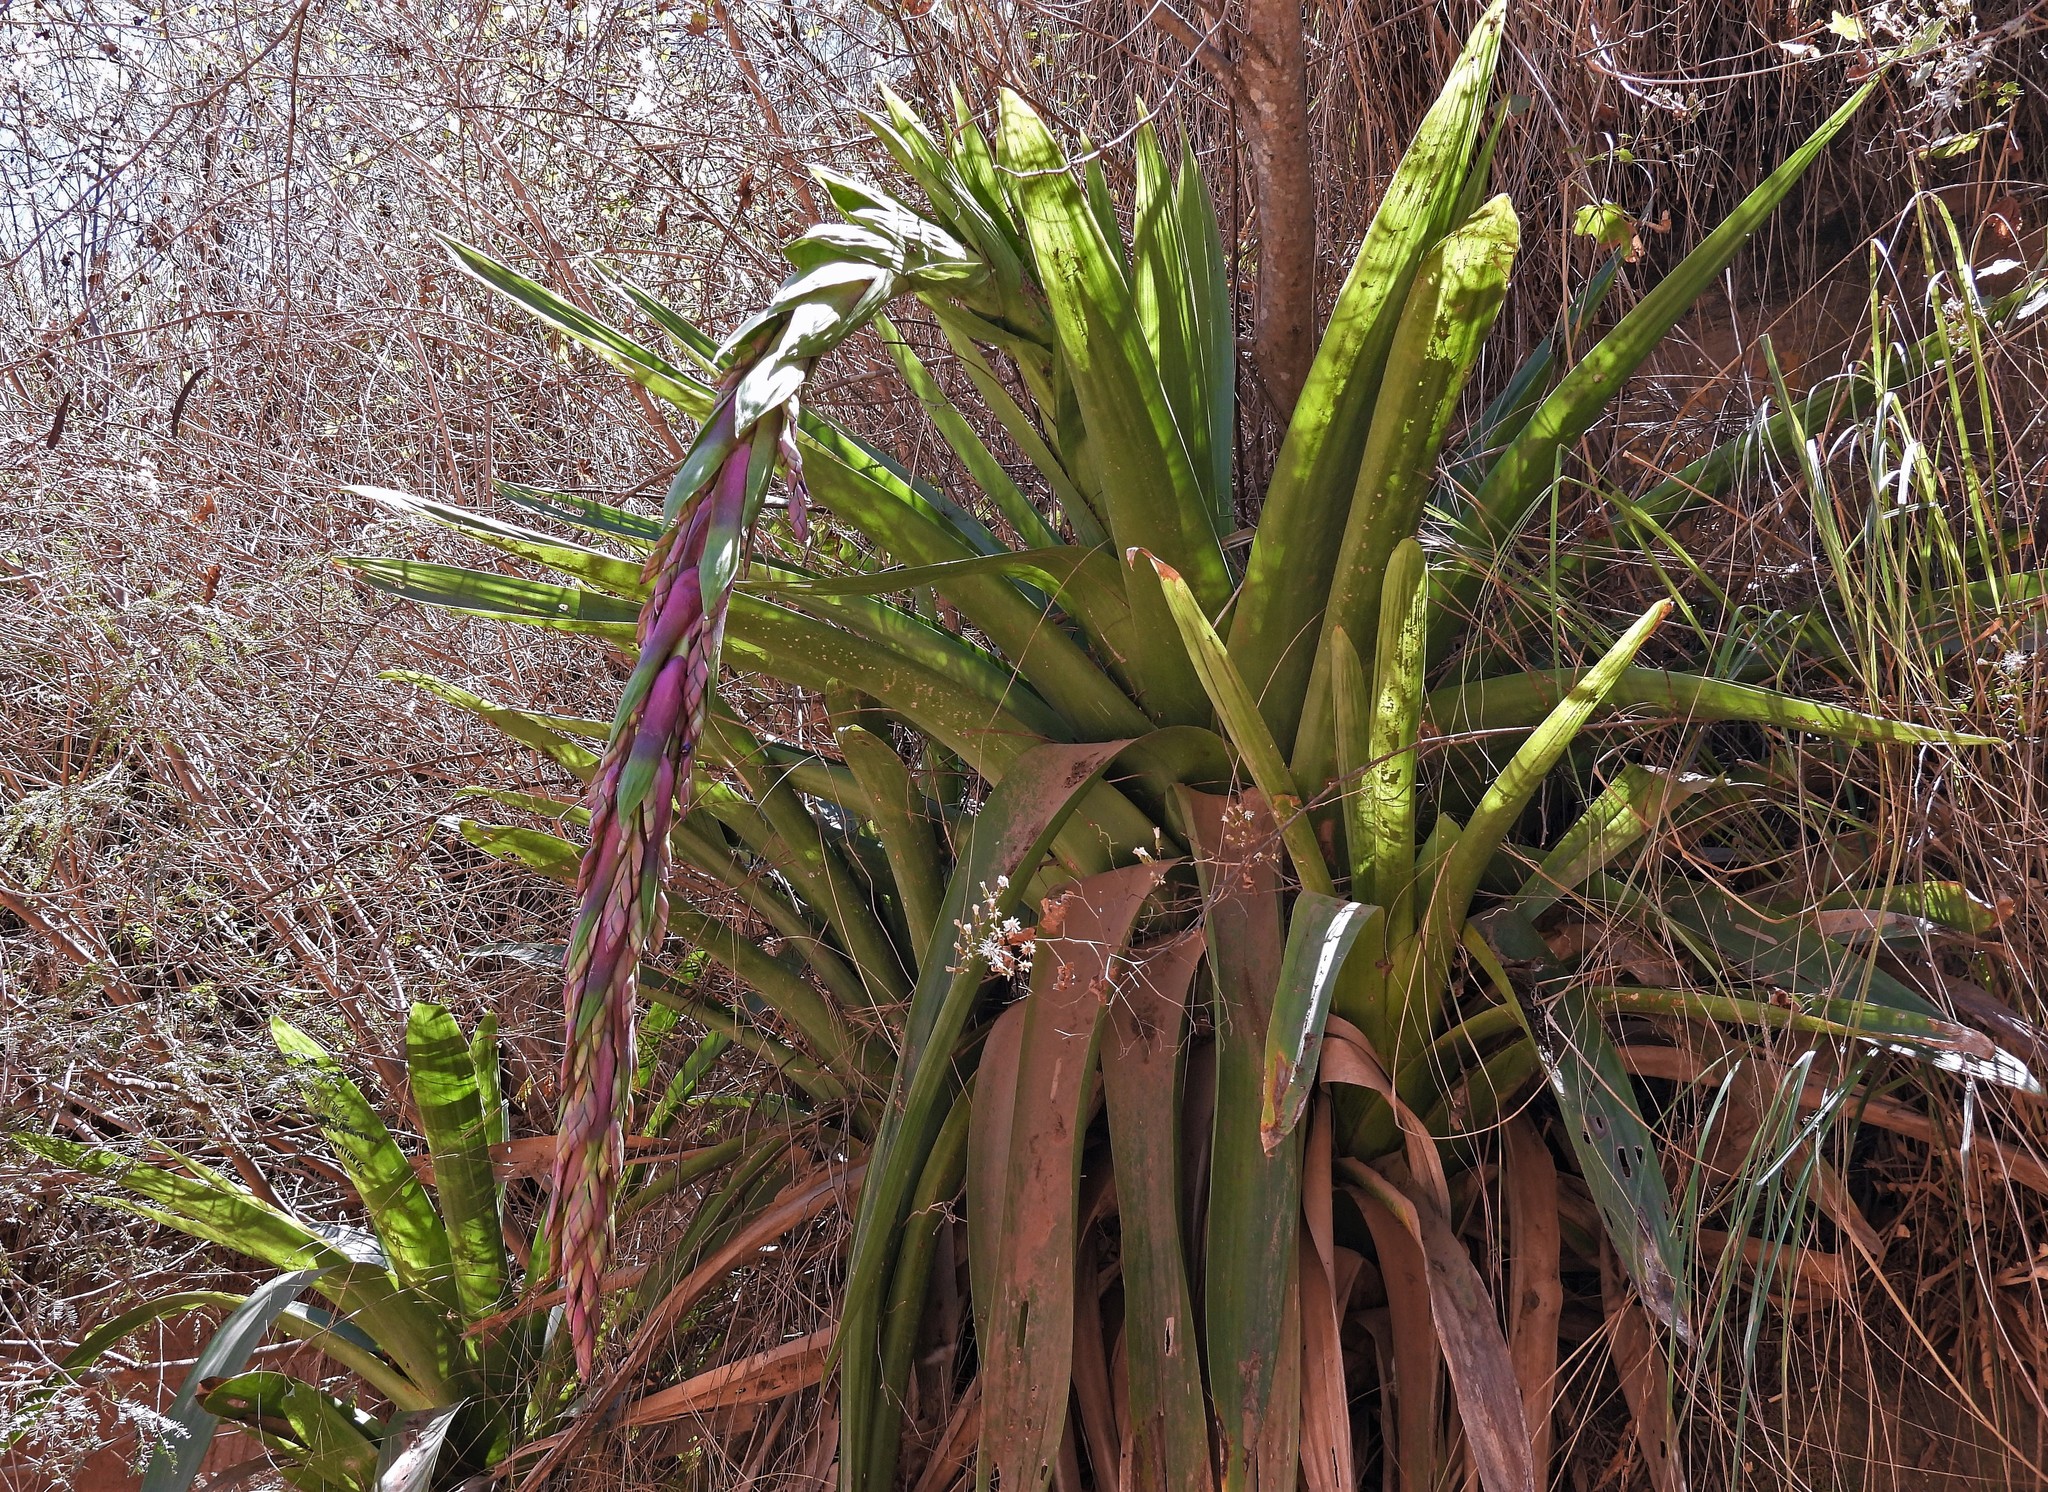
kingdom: Plantae
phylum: Tracheophyta
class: Liliopsida
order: Poales
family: Bromeliaceae
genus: Tillandsia
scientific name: Tillandsia australis
